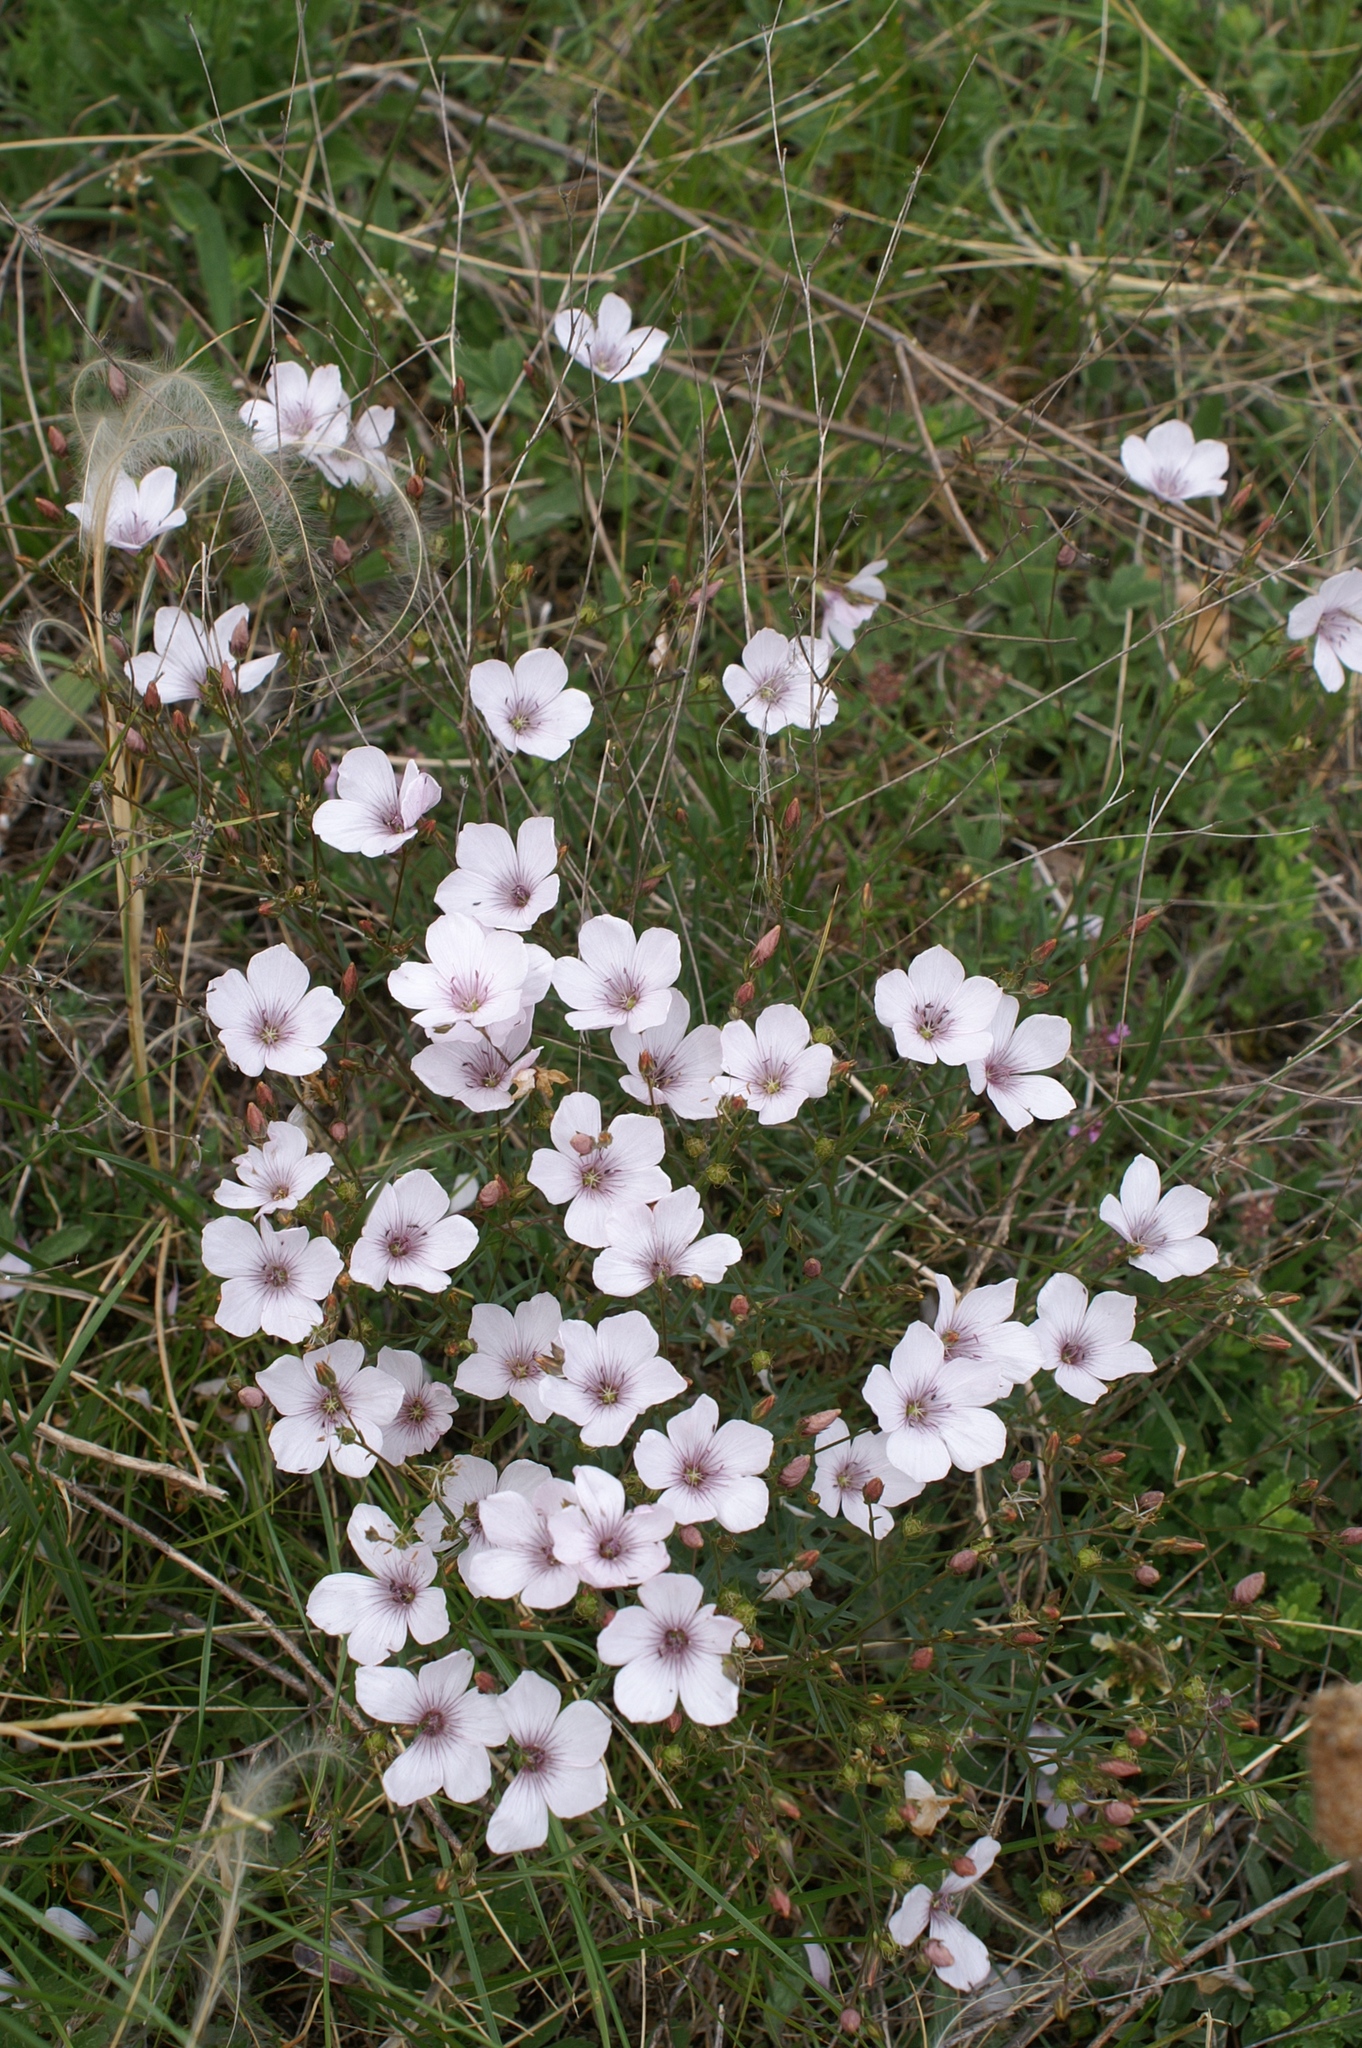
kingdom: Plantae
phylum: Tracheophyta
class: Magnoliopsida
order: Malpighiales
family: Linaceae
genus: Linum
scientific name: Linum tenuifolium
